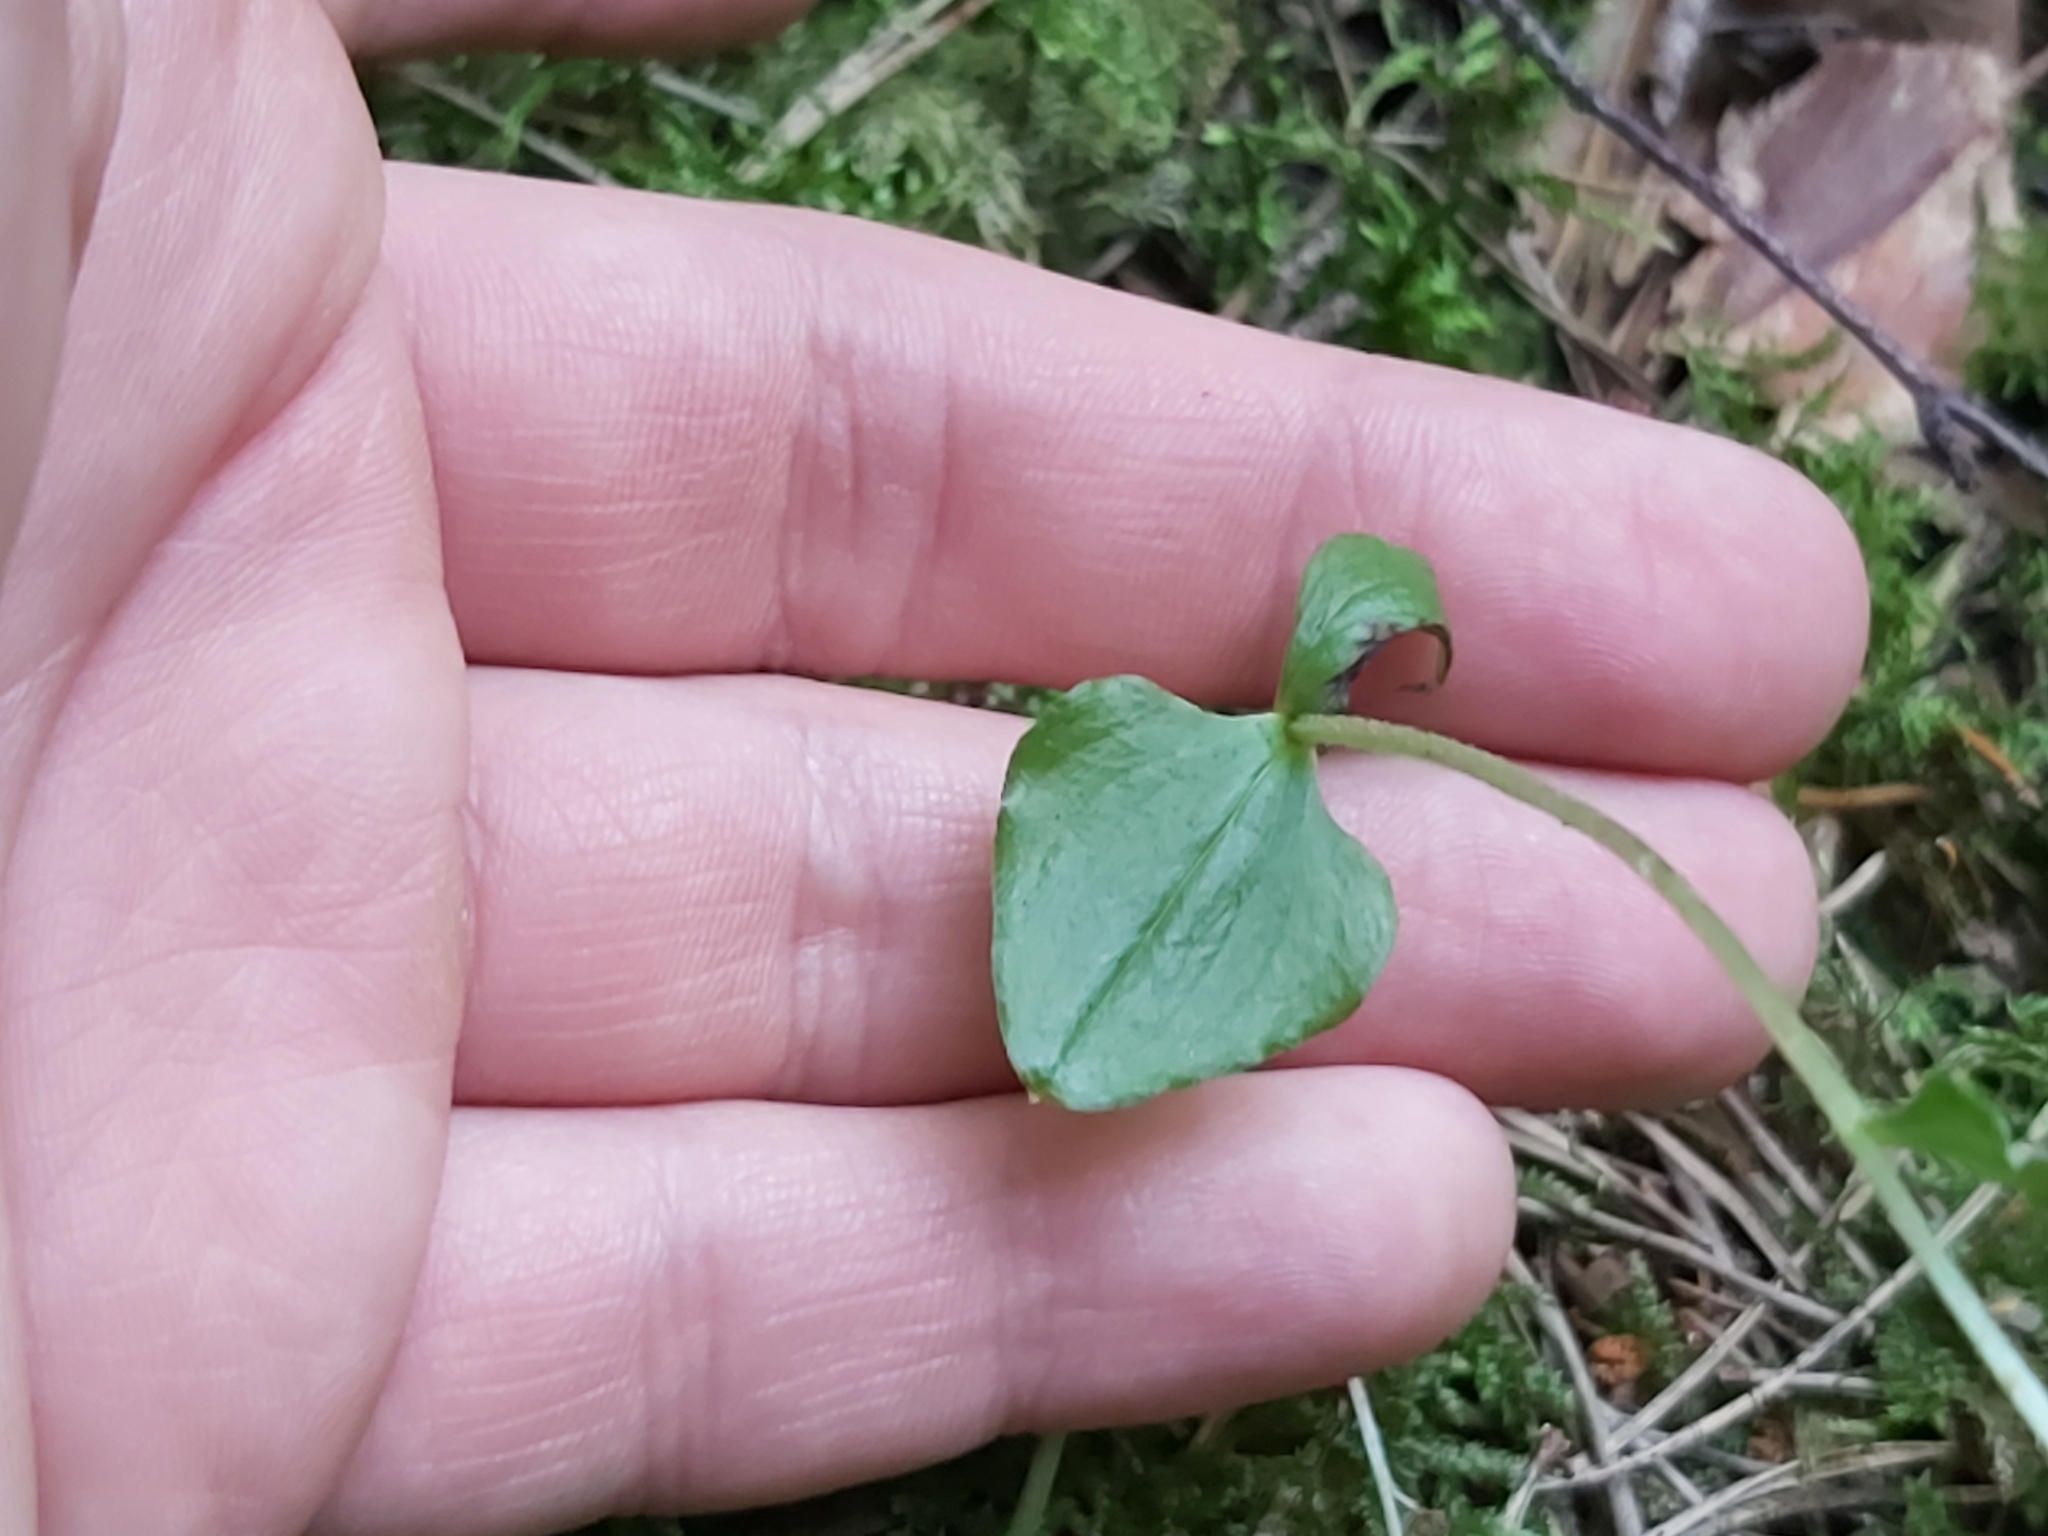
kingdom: Plantae
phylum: Tracheophyta
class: Liliopsida
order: Asparagales
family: Orchidaceae
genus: Neottia
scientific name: Neottia cordata
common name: Lesser twayblade
